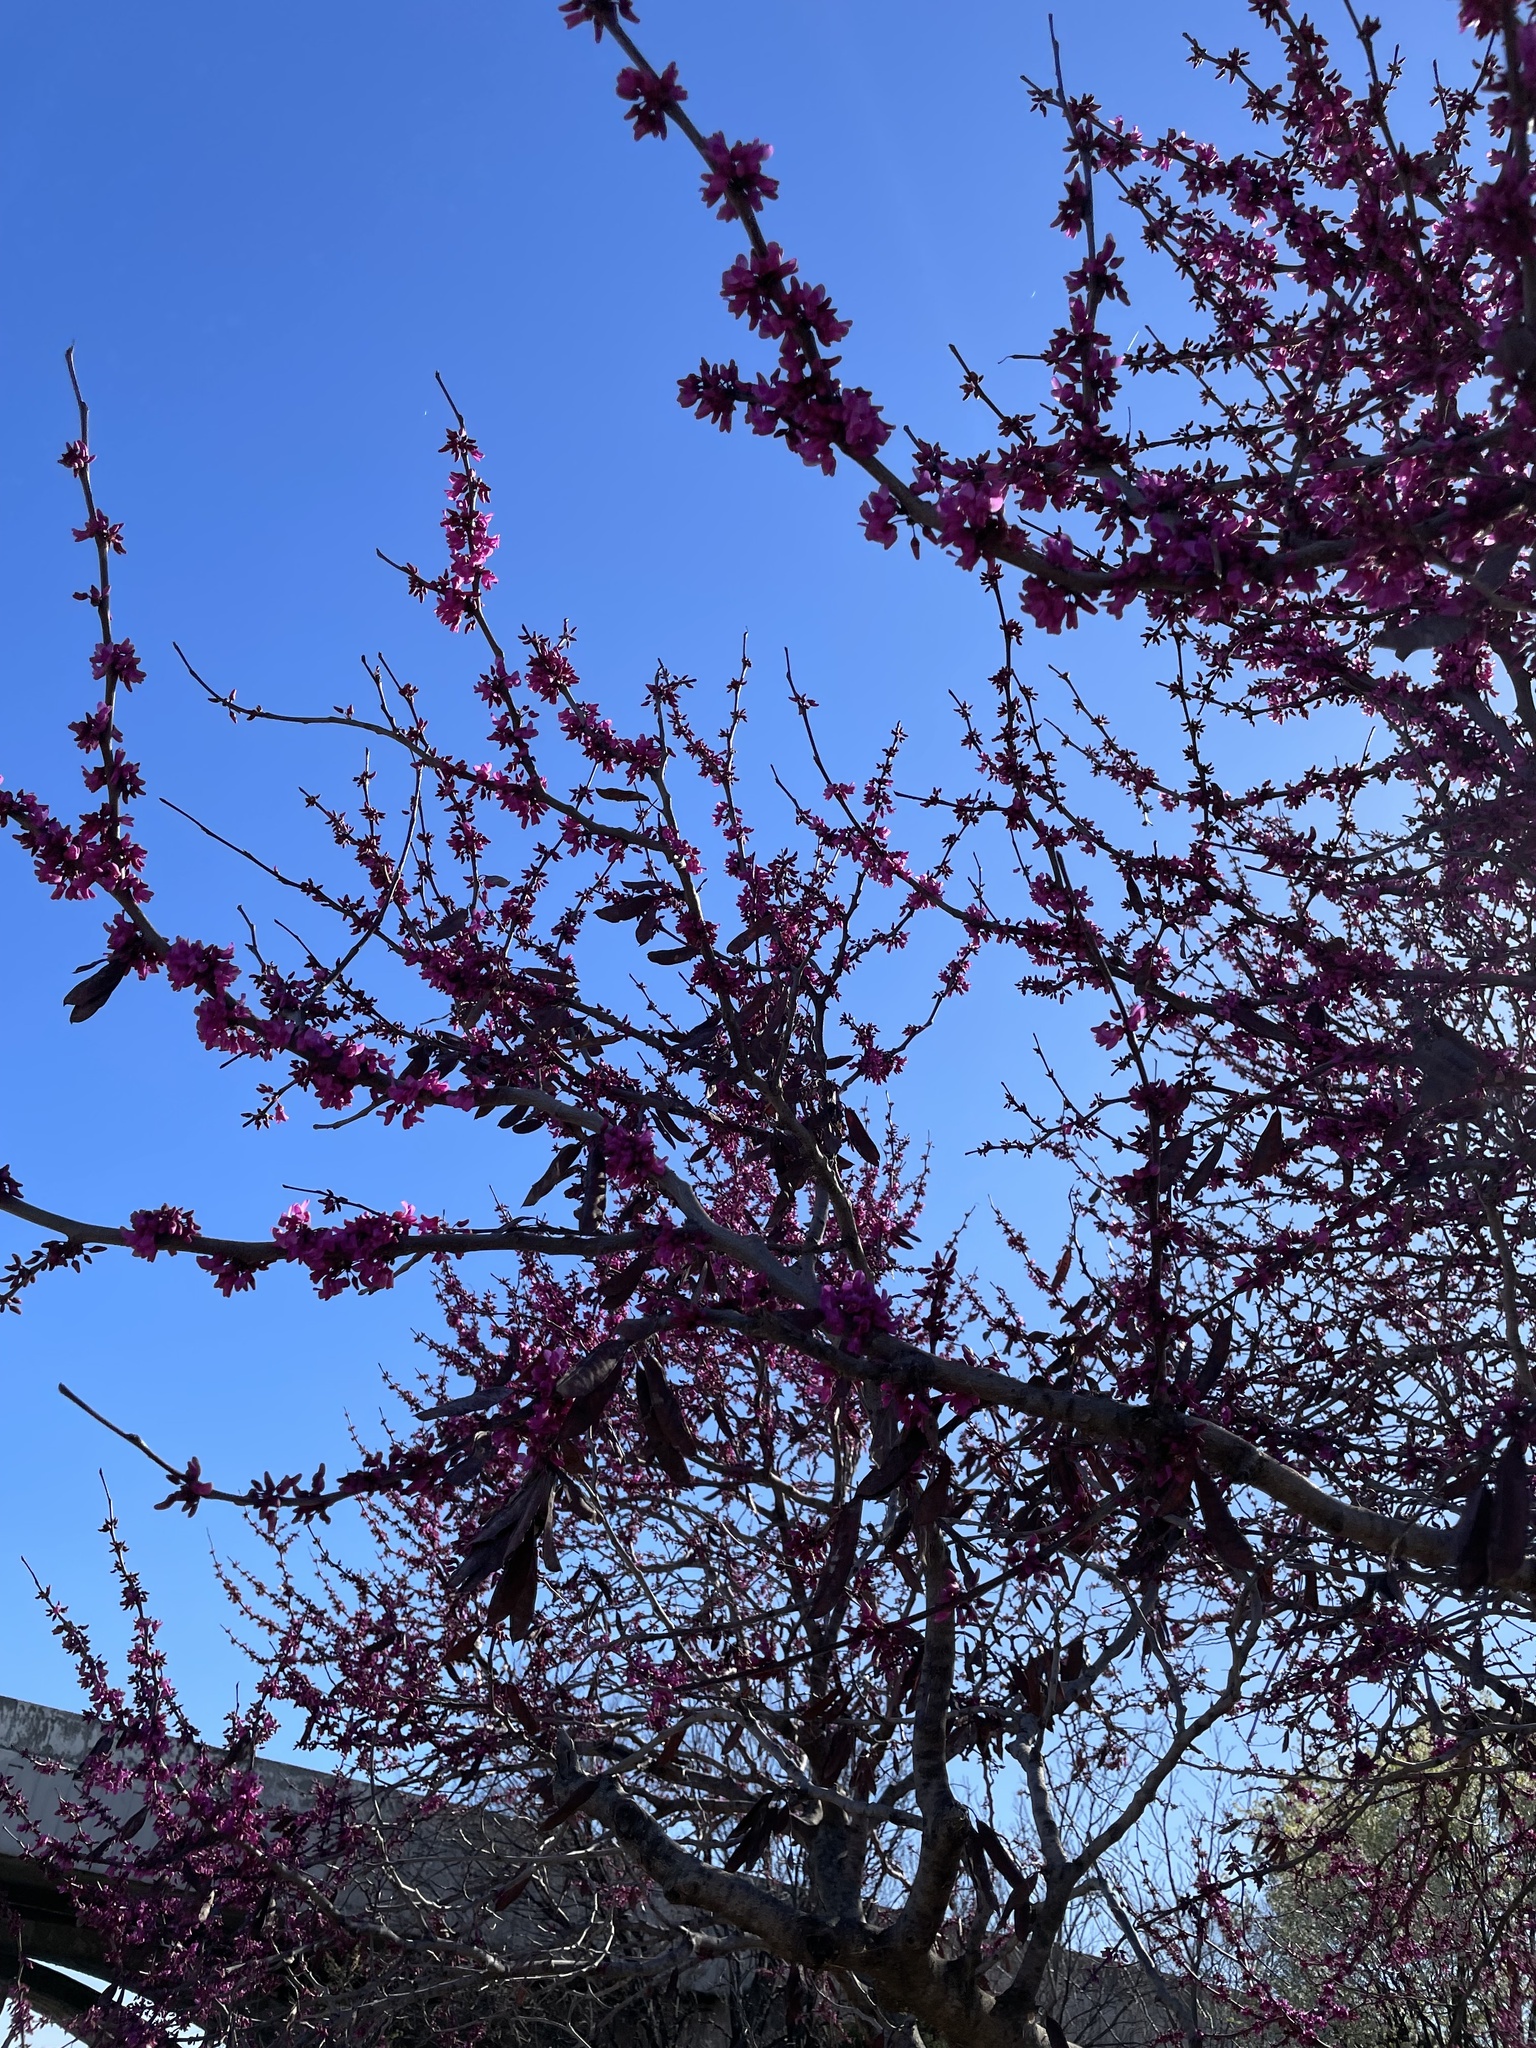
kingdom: Plantae
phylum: Tracheophyta
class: Magnoliopsida
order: Fabales
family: Fabaceae
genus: Cercis
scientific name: Cercis canadensis
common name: Eastern redbud
